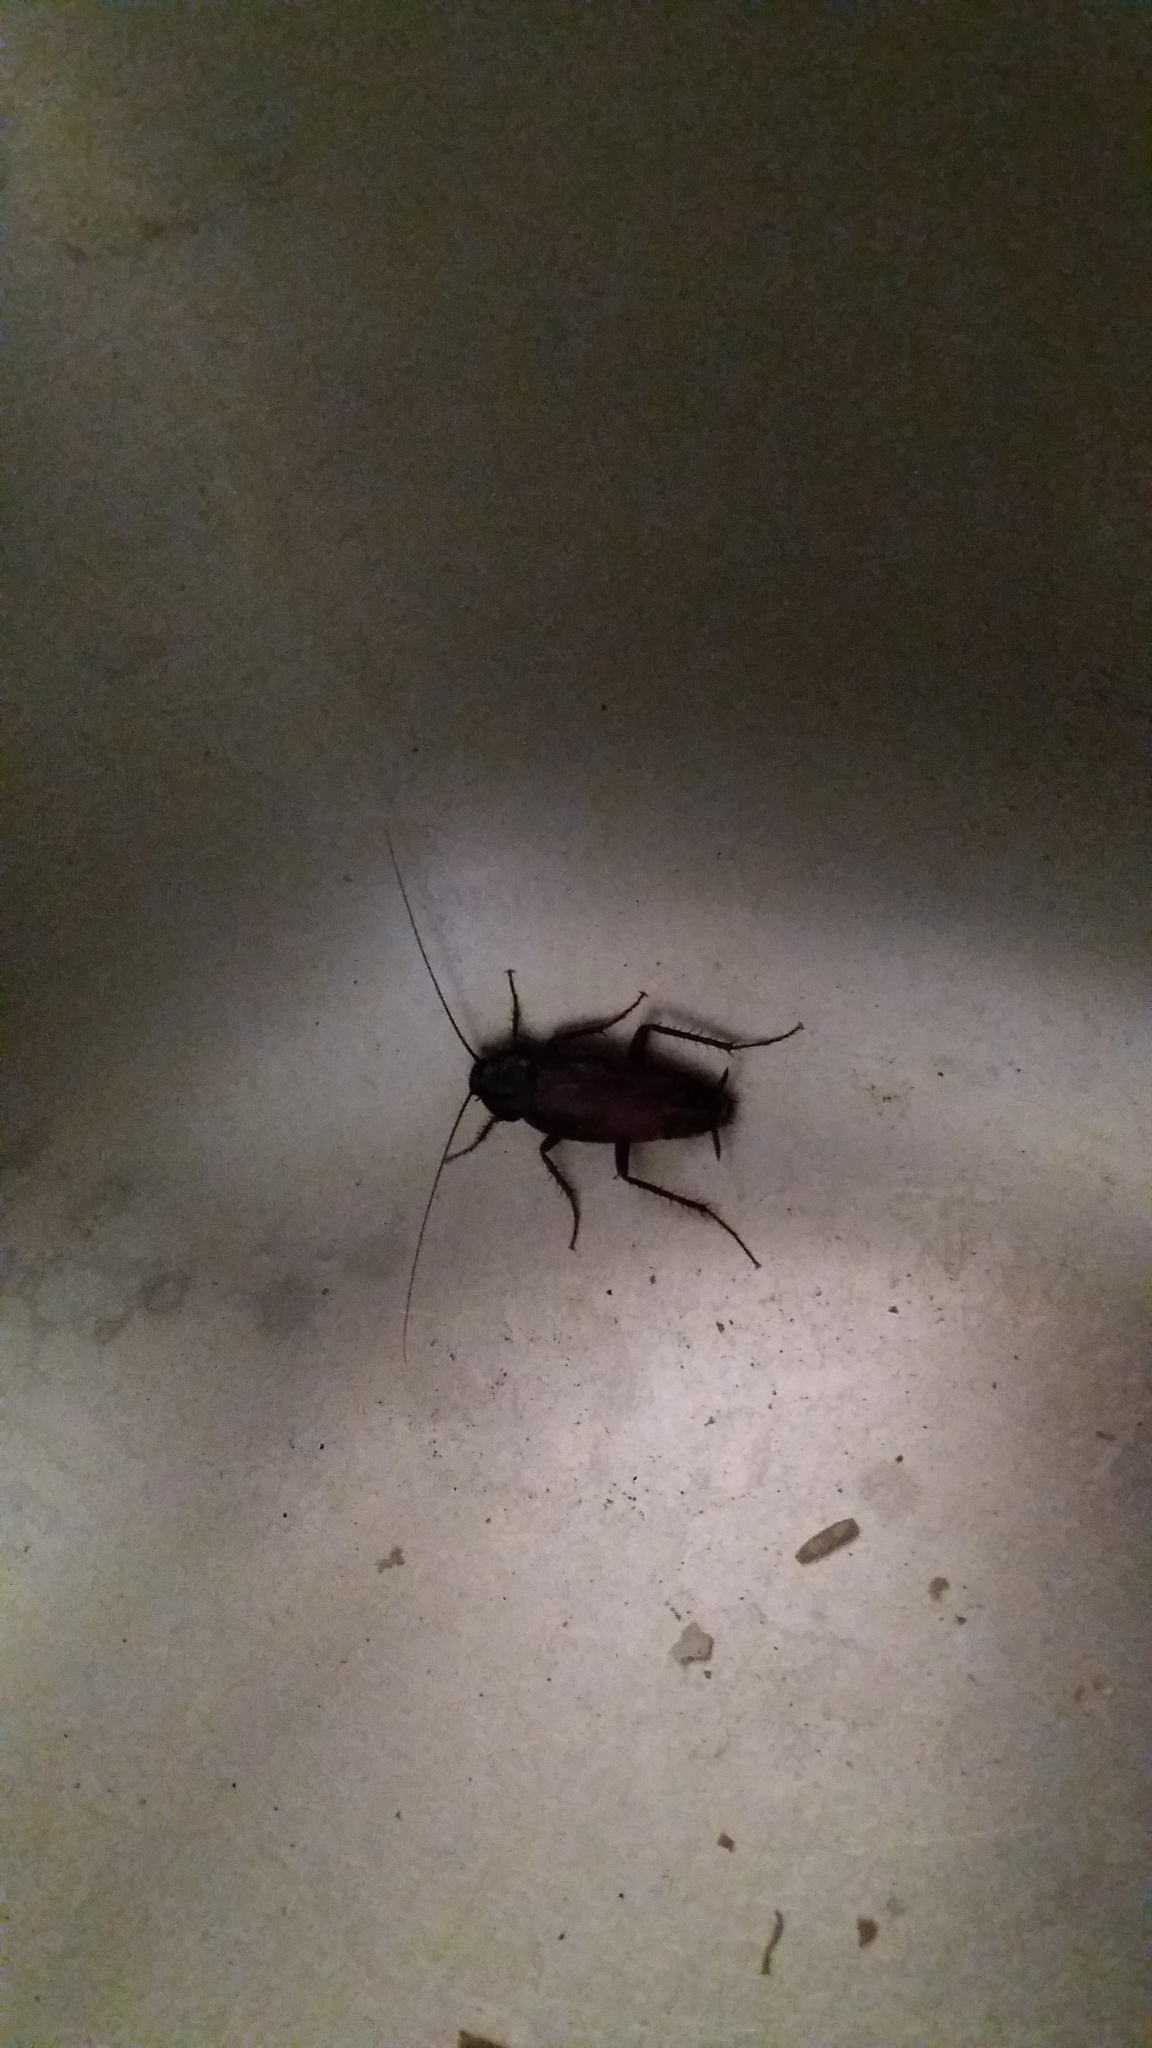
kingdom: Animalia
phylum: Arthropoda
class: Insecta
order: Blattodea
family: Blattidae
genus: Blatta
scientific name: Blatta orientalis
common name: Oriental cockroach
